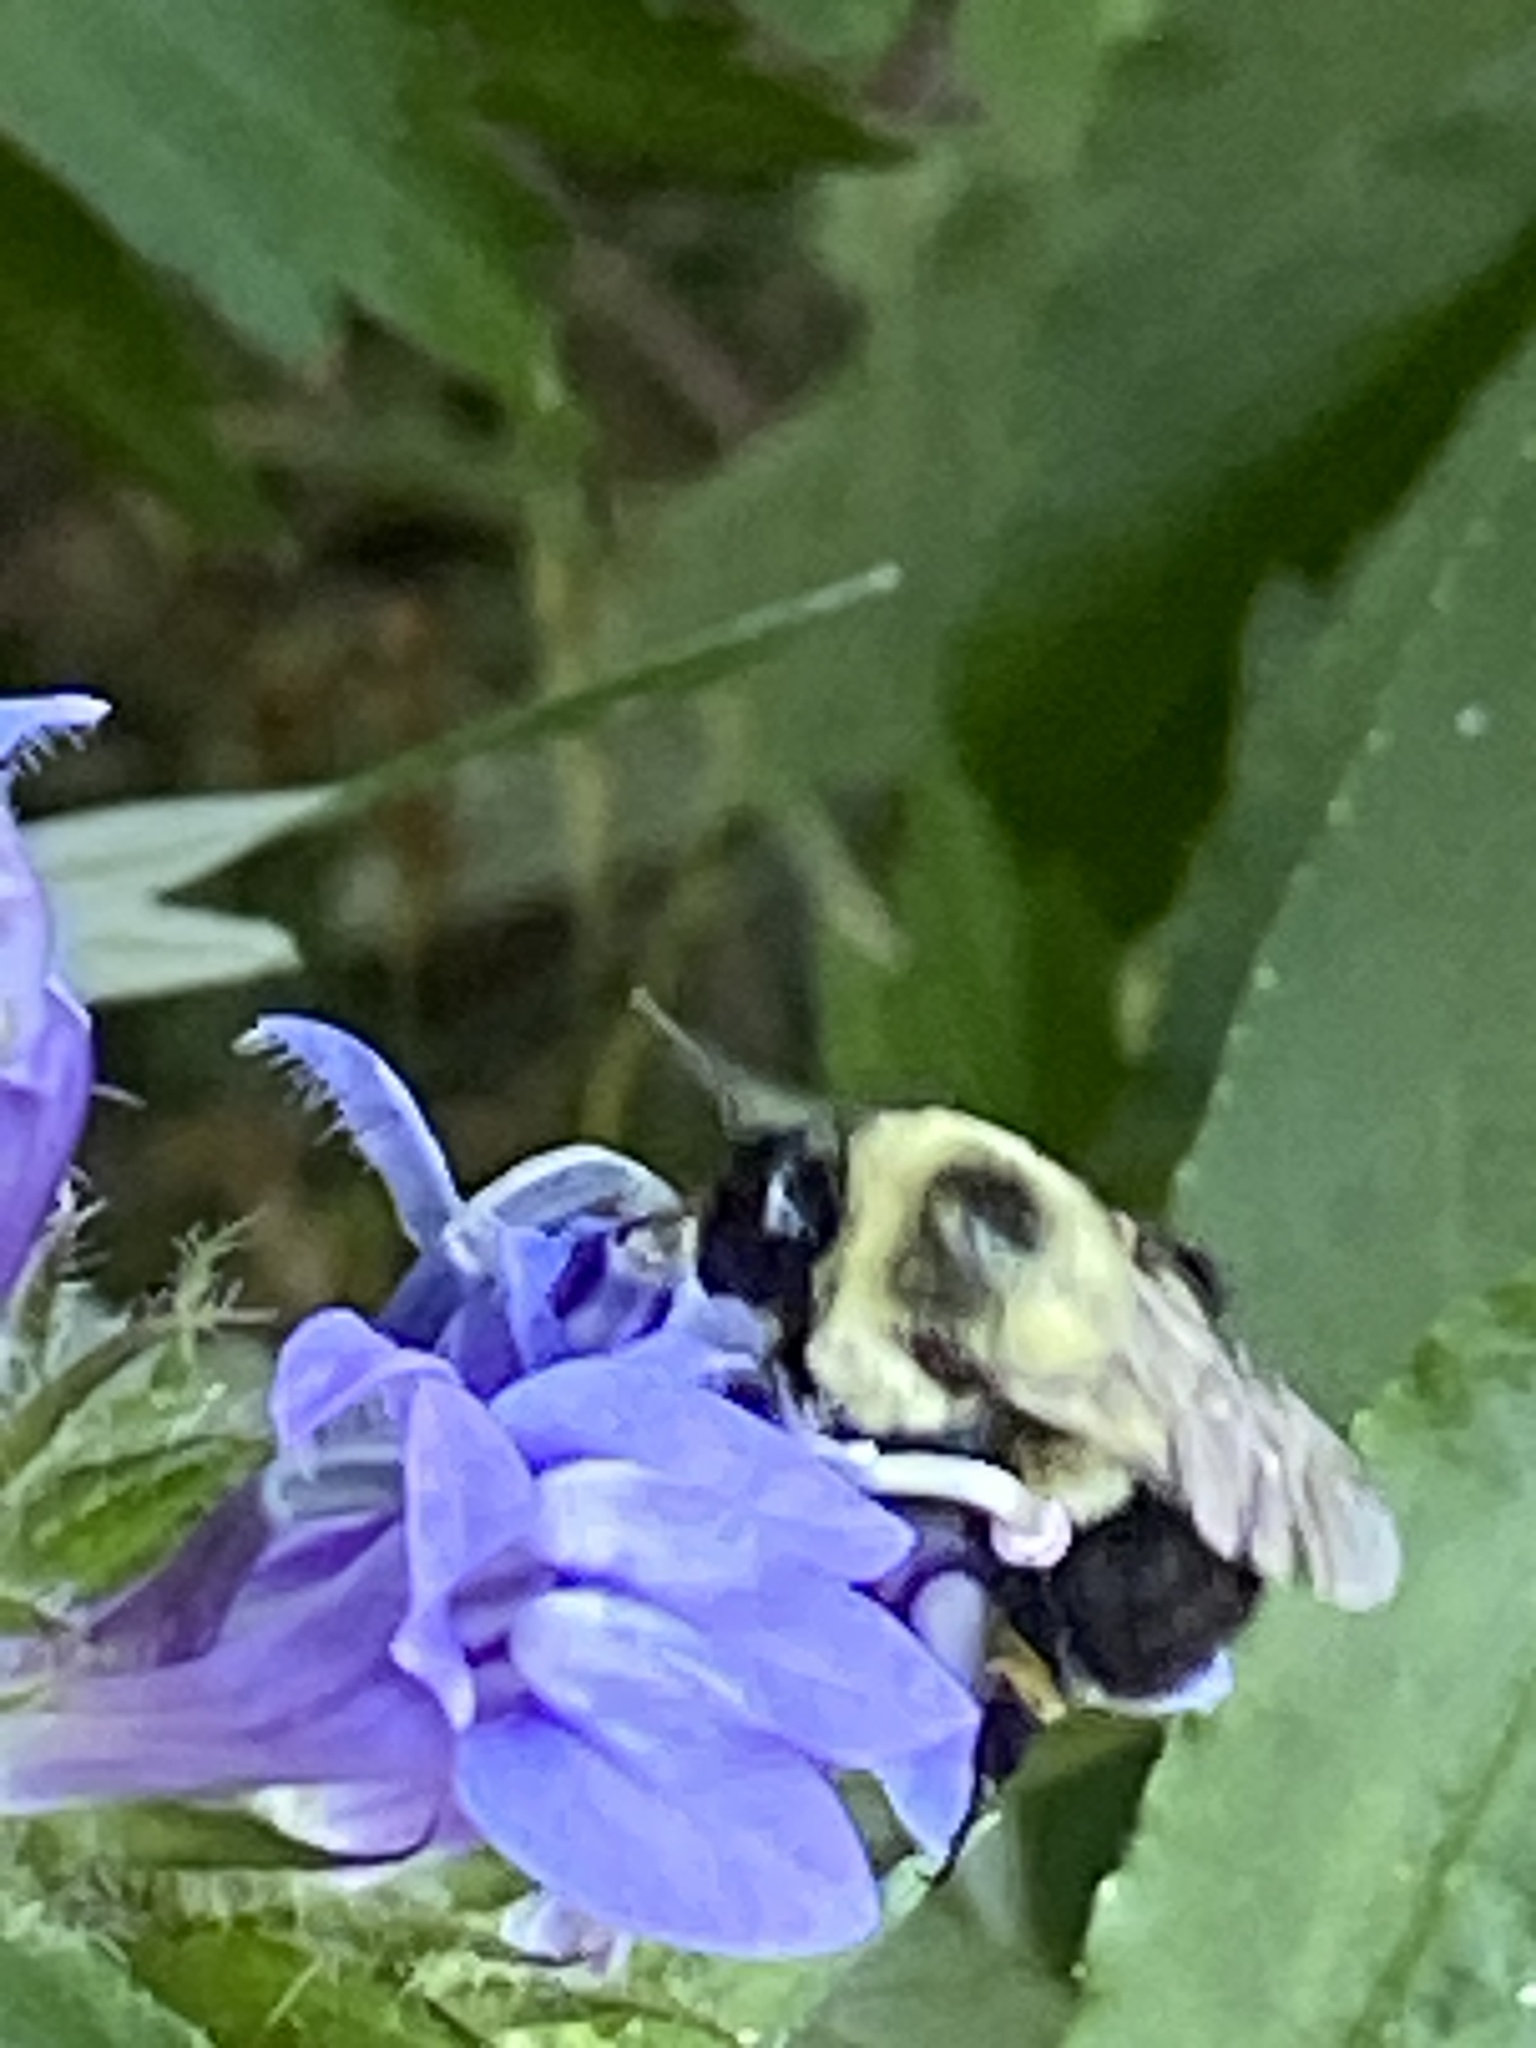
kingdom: Animalia
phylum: Arthropoda
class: Insecta
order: Hymenoptera
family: Apidae
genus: Bombus
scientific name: Bombus impatiens
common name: Common eastern bumble bee
